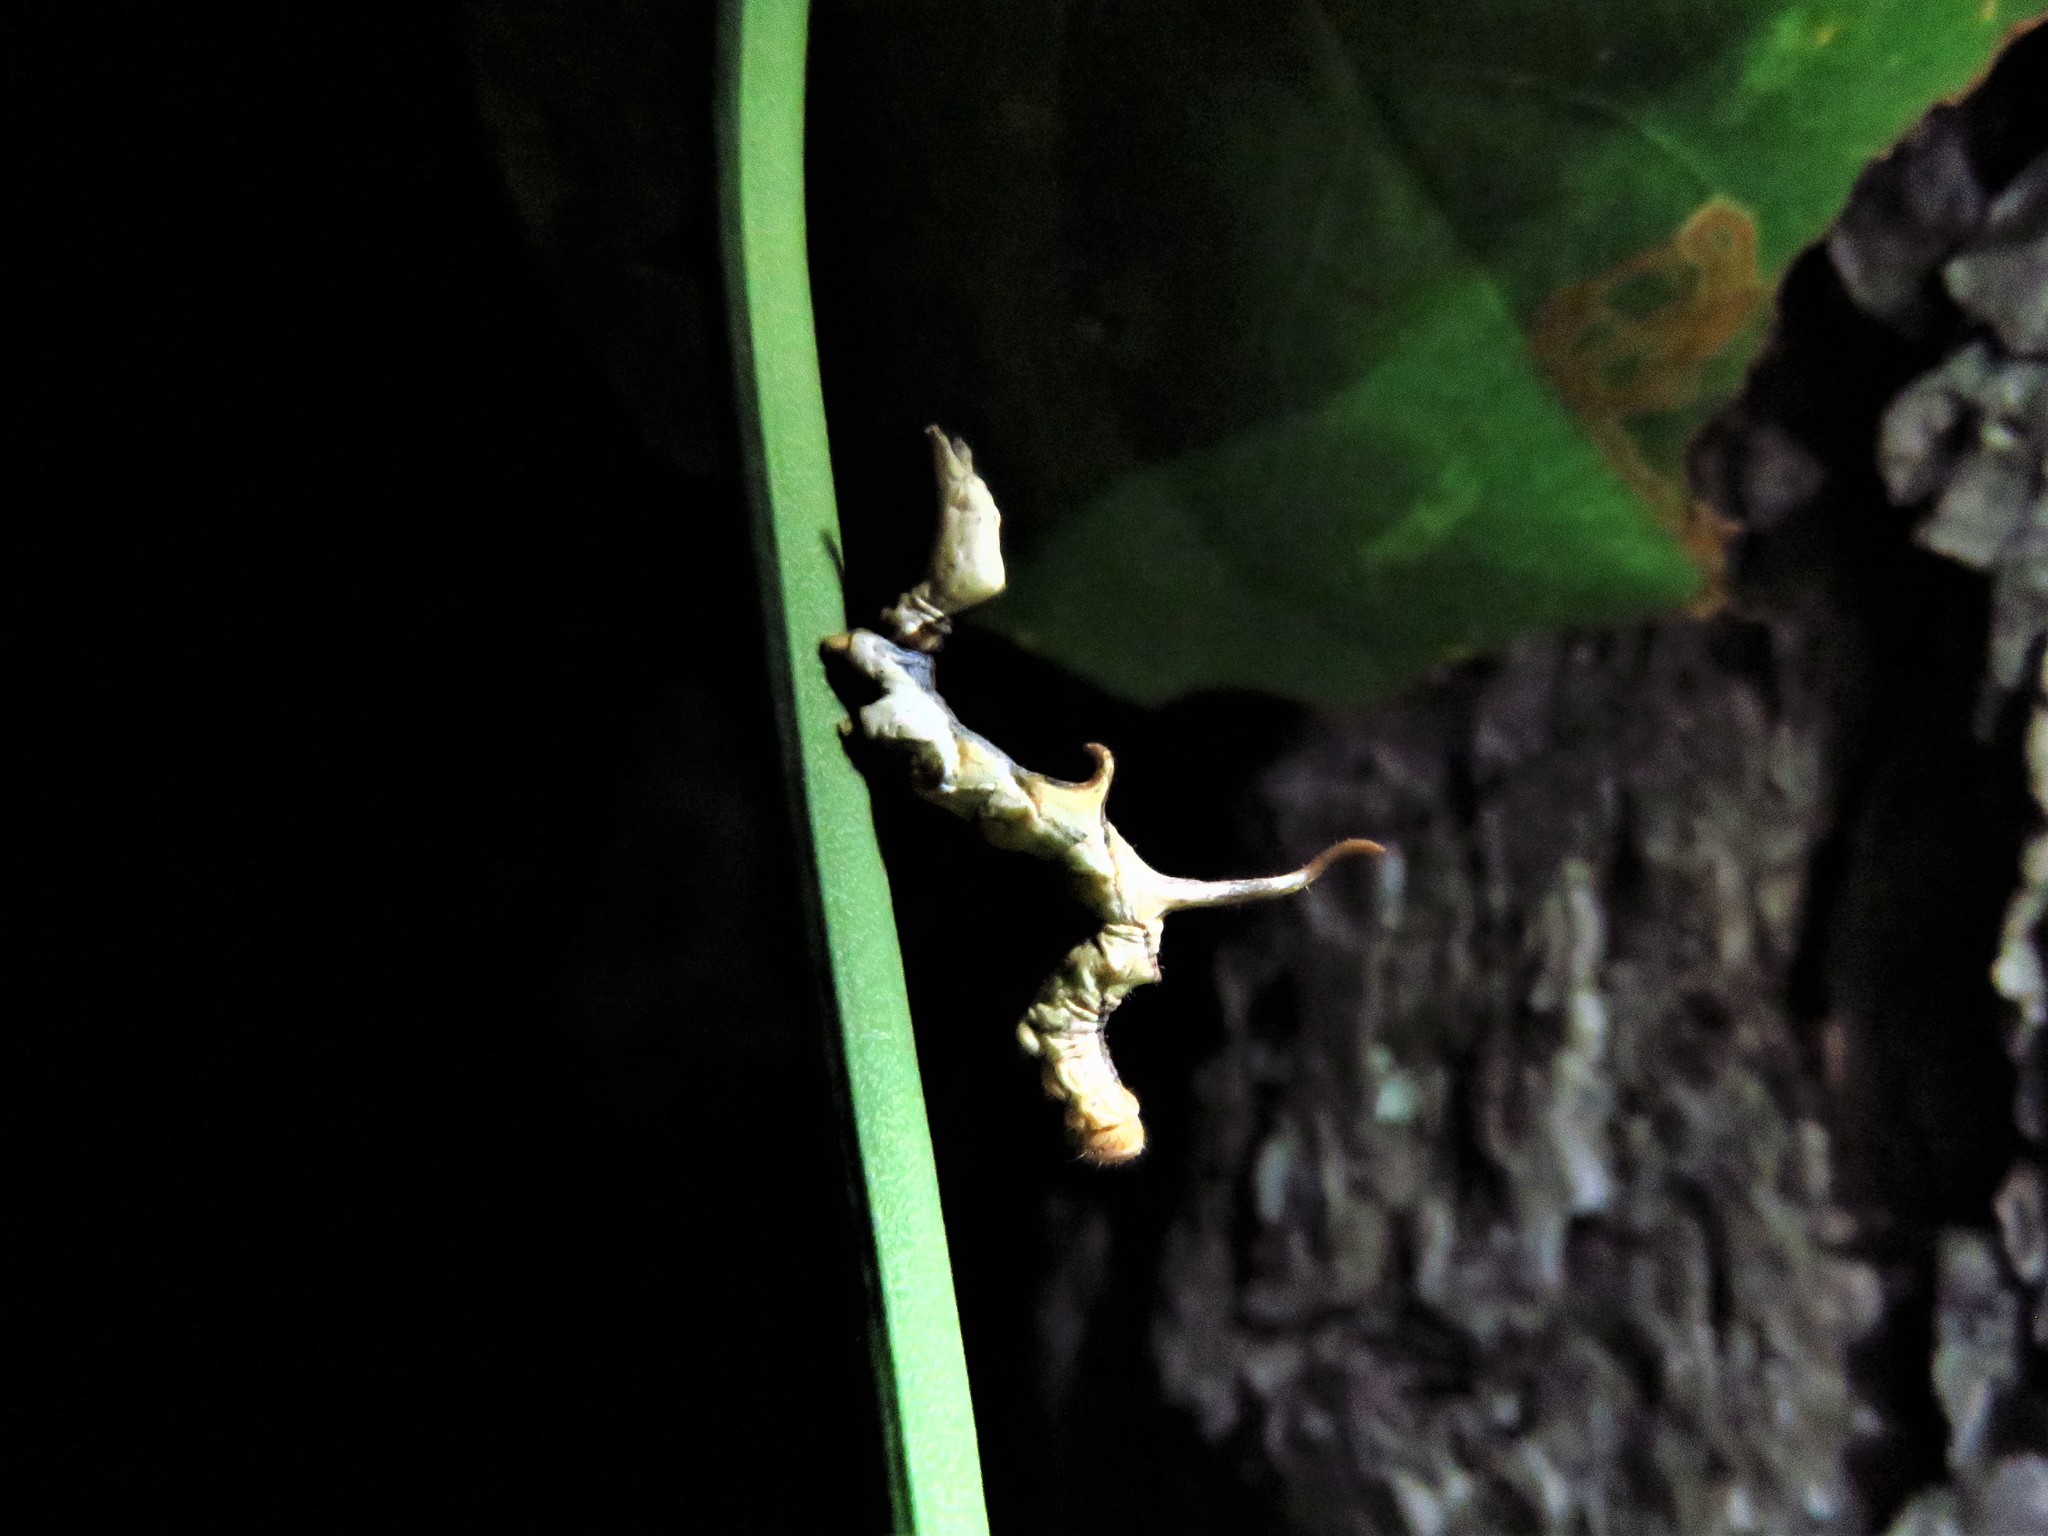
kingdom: Animalia
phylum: Arthropoda
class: Insecta
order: Lepidoptera
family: Erebidae
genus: Phyprosopus
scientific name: Phyprosopus callitrichoides
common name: Curved-lined owlet
